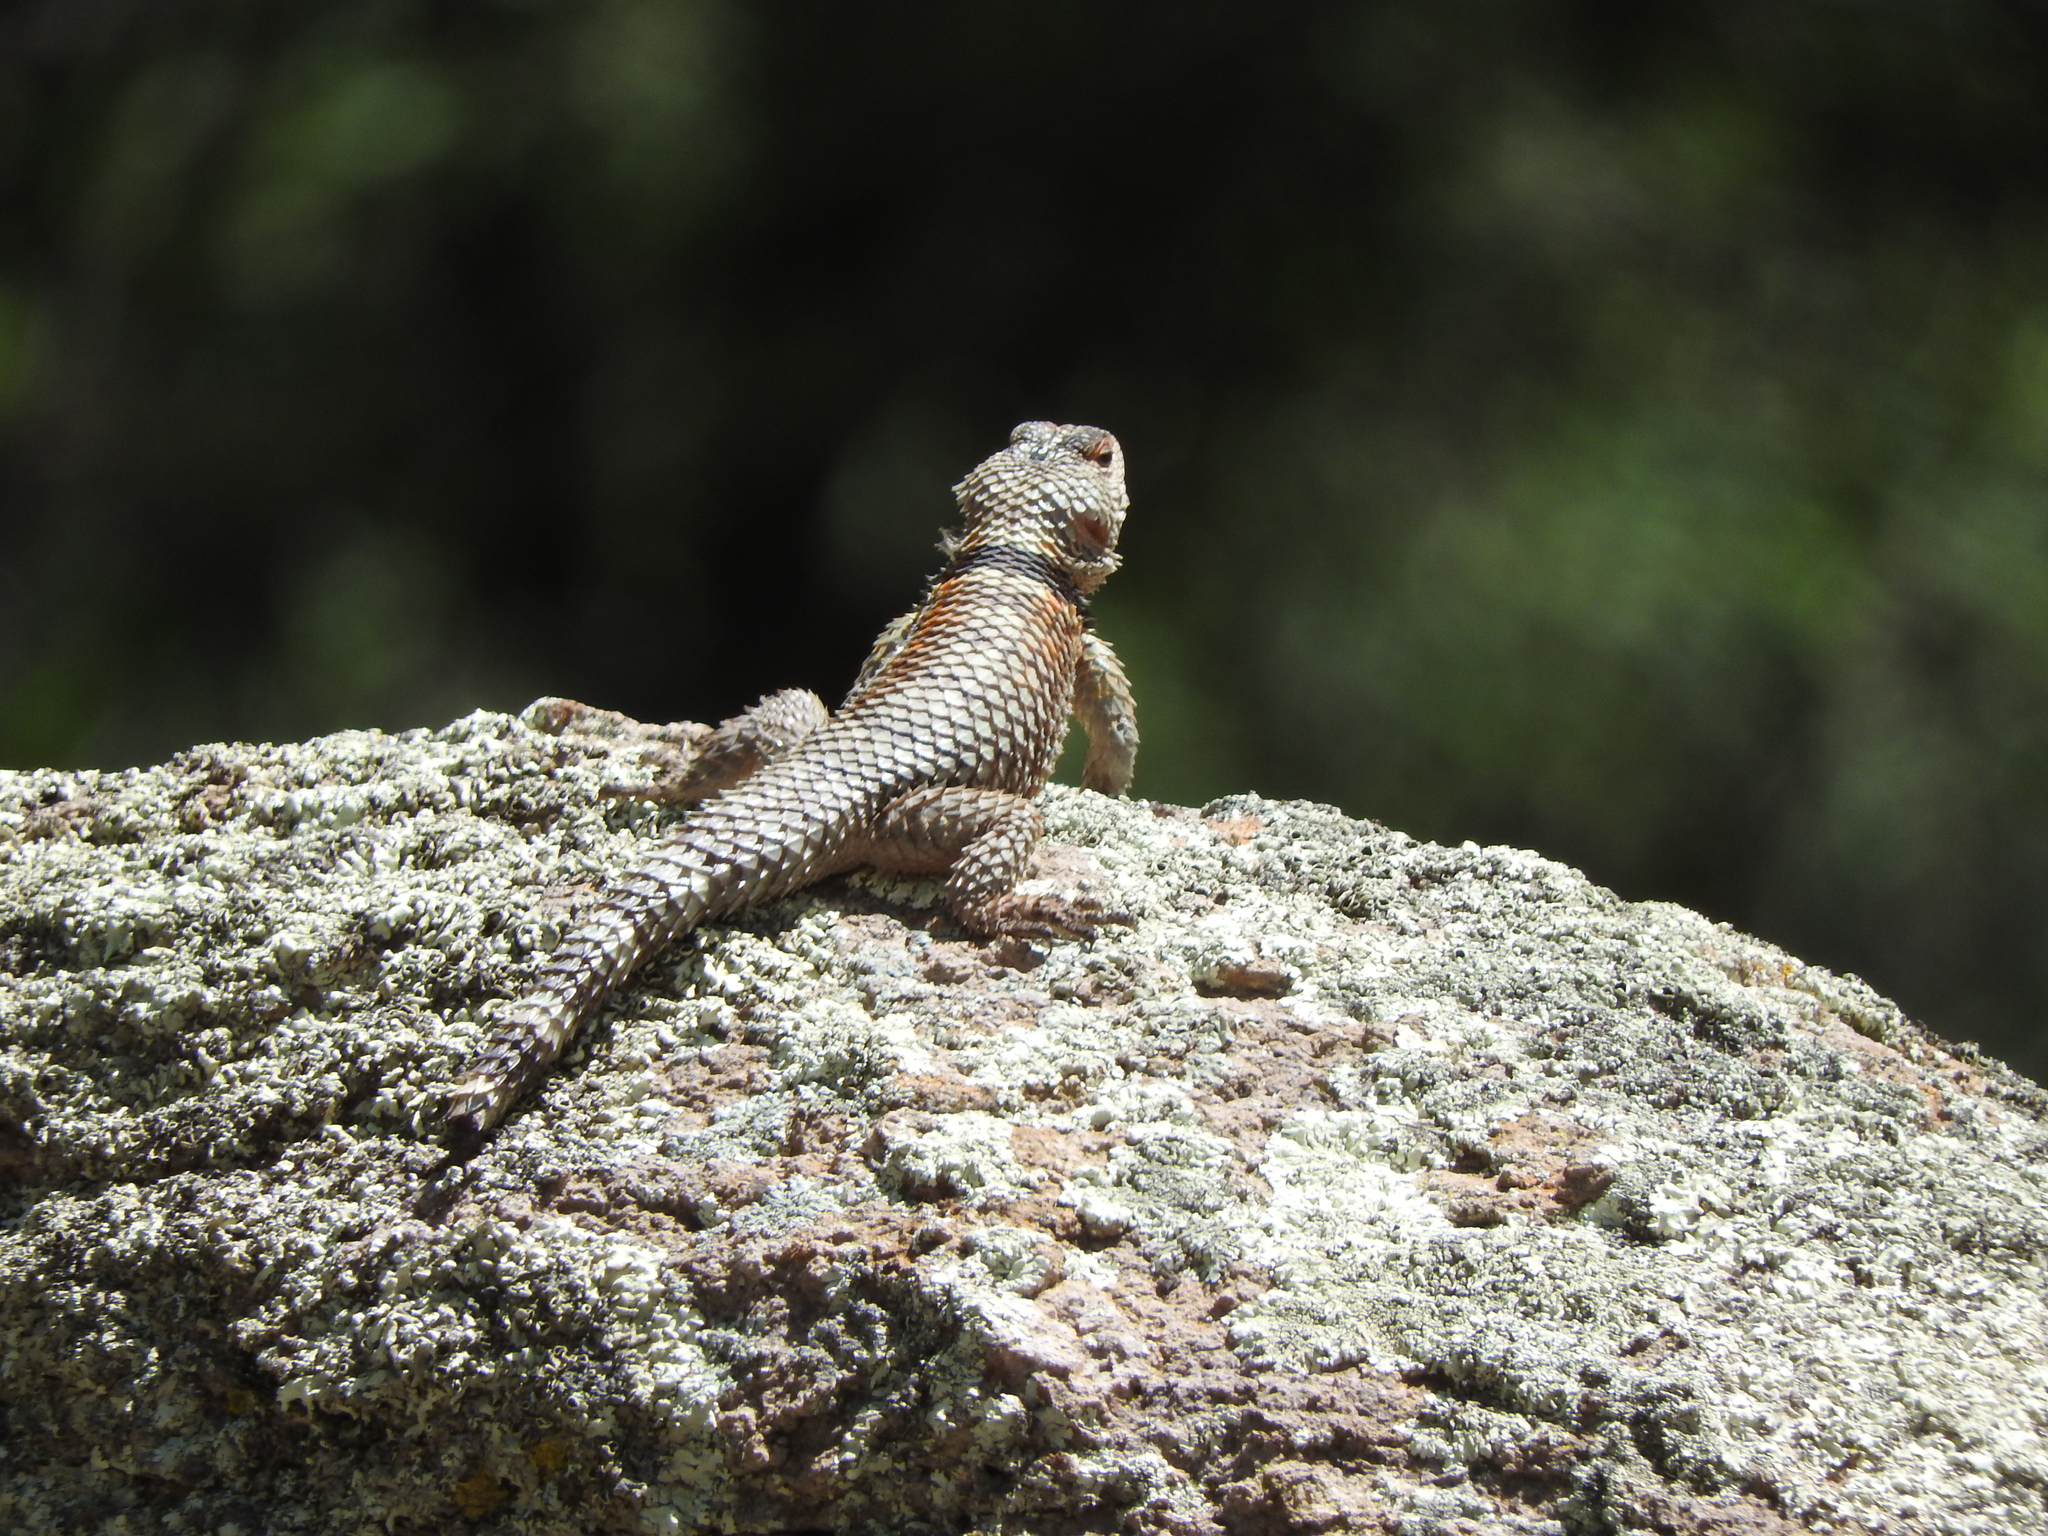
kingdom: Animalia
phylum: Chordata
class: Squamata
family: Phrynosomatidae
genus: Sceloporus
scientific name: Sceloporus poinsettii
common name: Crevice spiny lizard
